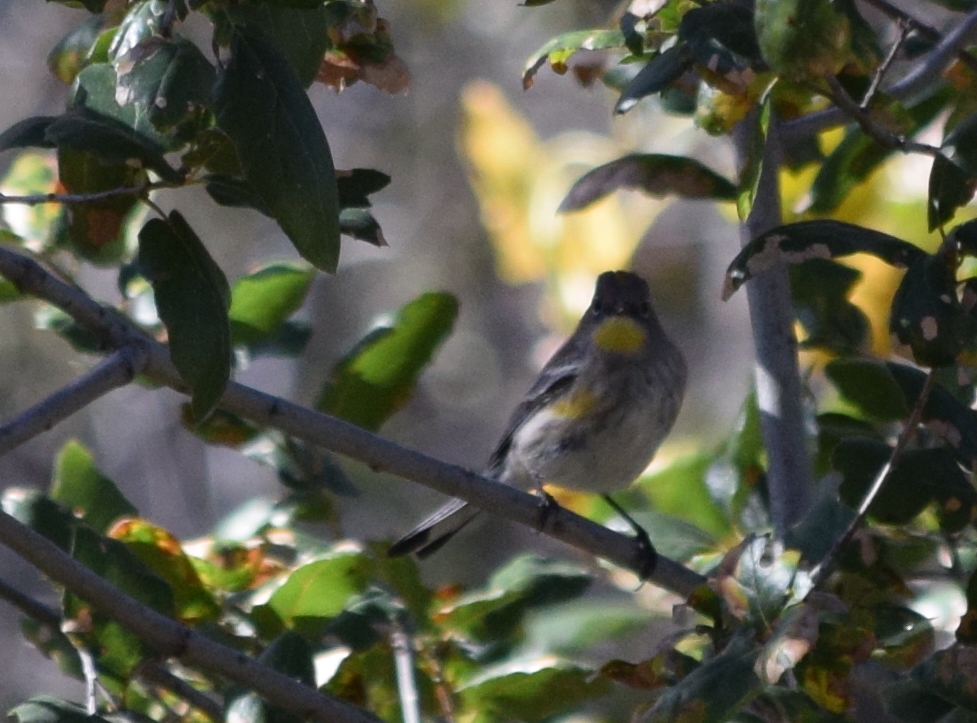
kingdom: Animalia
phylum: Chordata
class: Aves
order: Passeriformes
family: Parulidae
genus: Setophaga
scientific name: Setophaga auduboni
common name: Audubon's warbler
